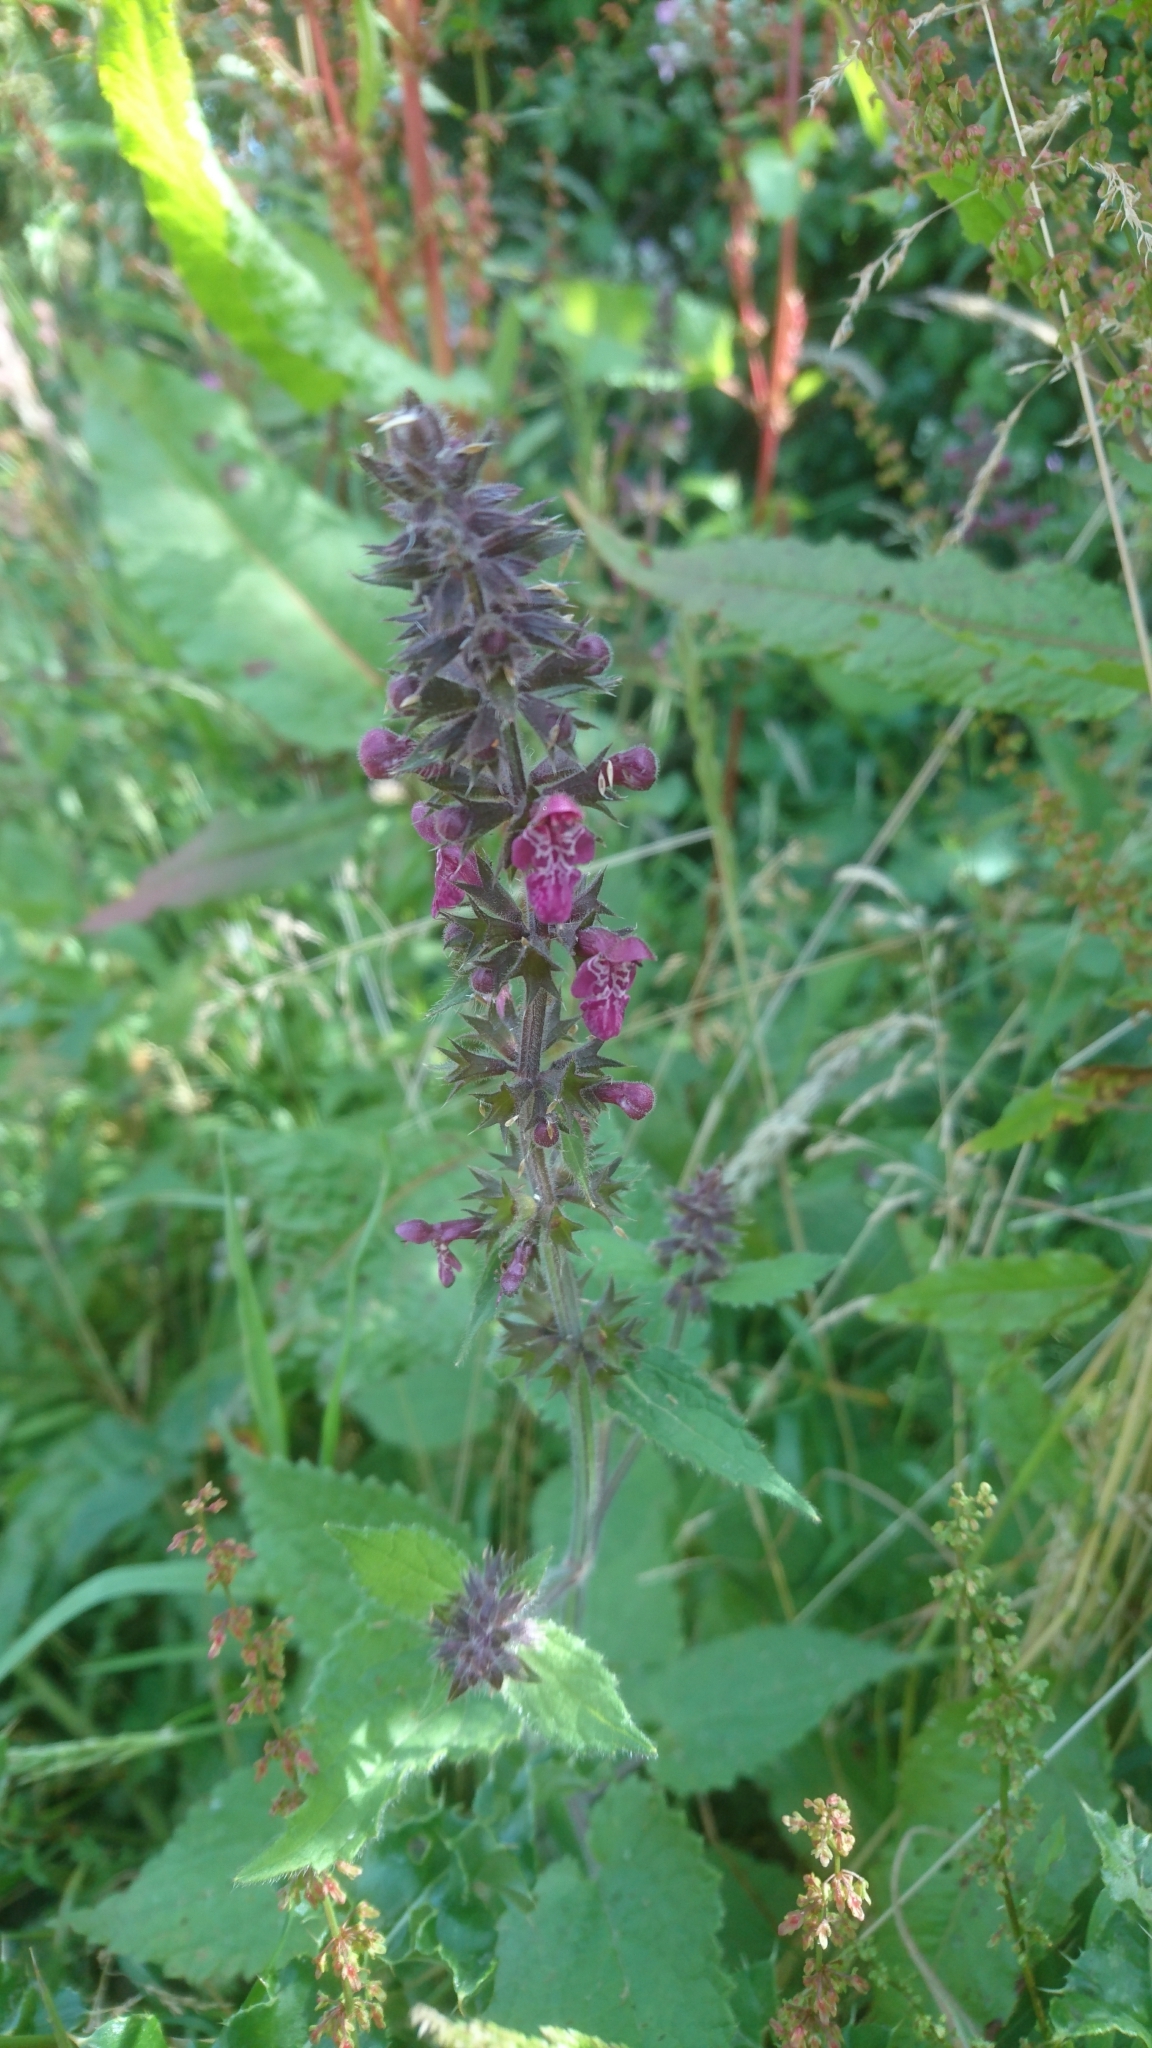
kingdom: Plantae
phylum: Tracheophyta
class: Magnoliopsida
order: Lamiales
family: Lamiaceae
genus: Stachys
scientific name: Stachys sylvatica
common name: Hedge woundwort
